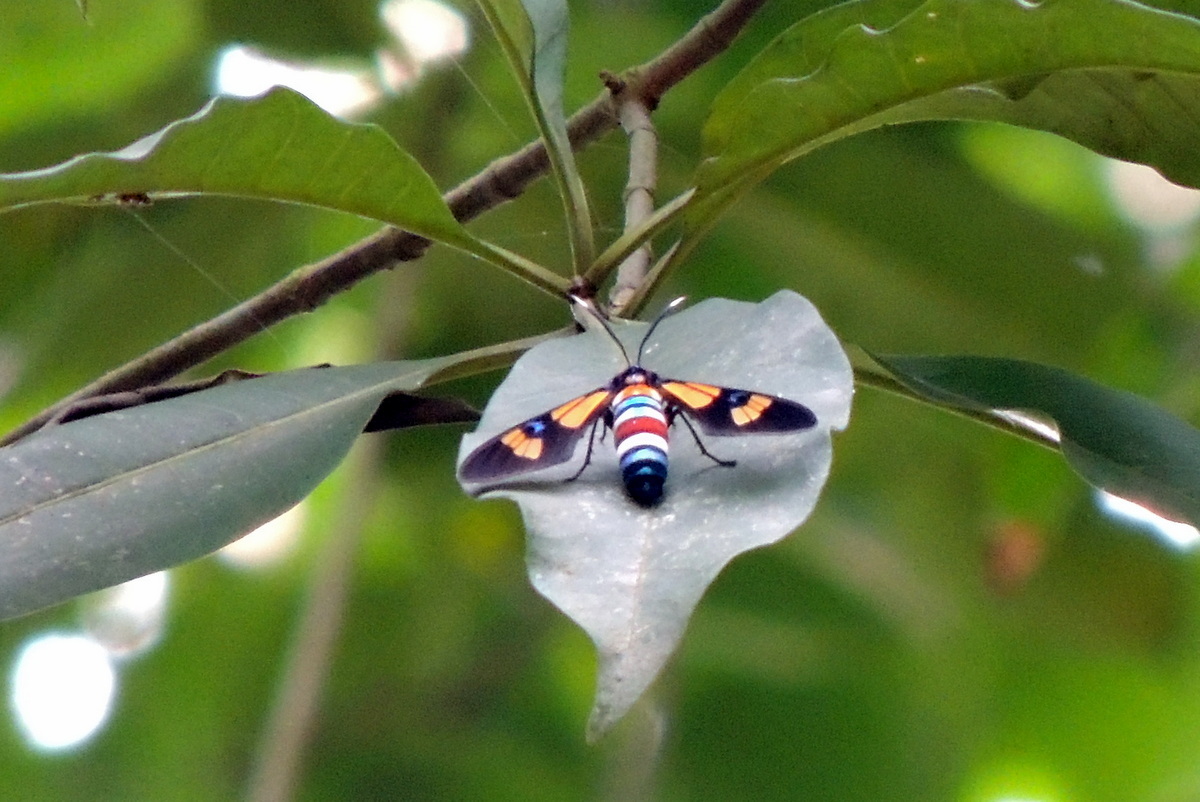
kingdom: Animalia
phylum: Arthropoda
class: Insecta
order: Lepidoptera
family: Erebidae
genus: Euchromia
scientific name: Euchromia lethe
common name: Basker
